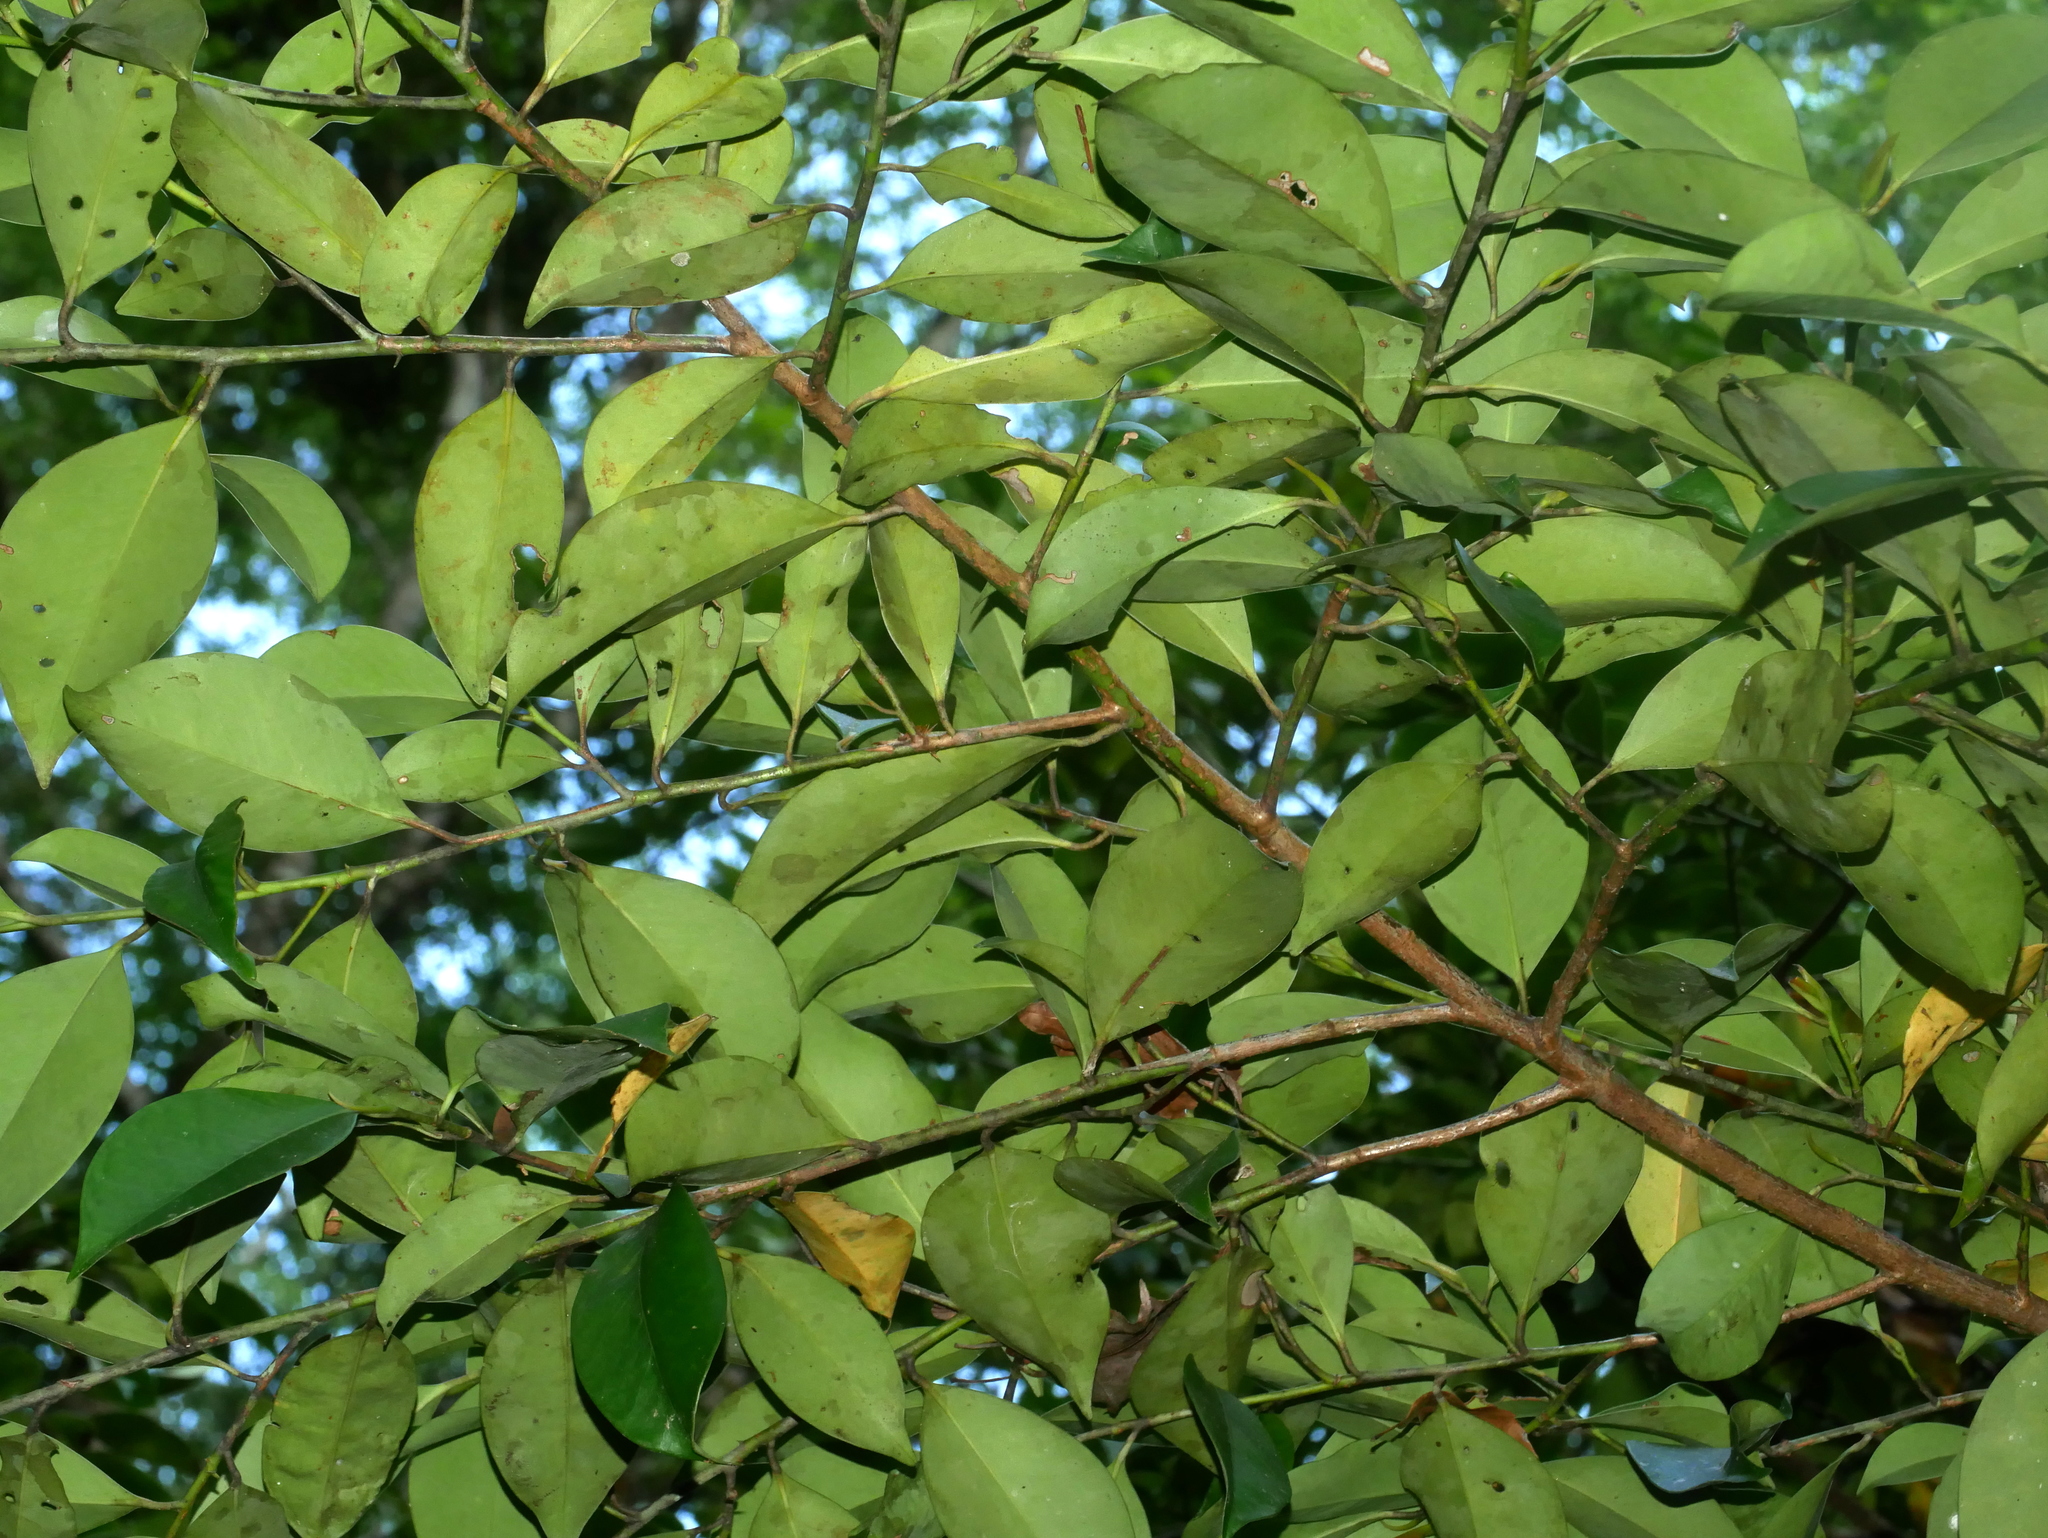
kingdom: Plantae
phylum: Tracheophyta
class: Magnoliopsida
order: Ericales
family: Pentaphylacaceae
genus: Cleyera
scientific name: Cleyera japonica
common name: Sakaki
